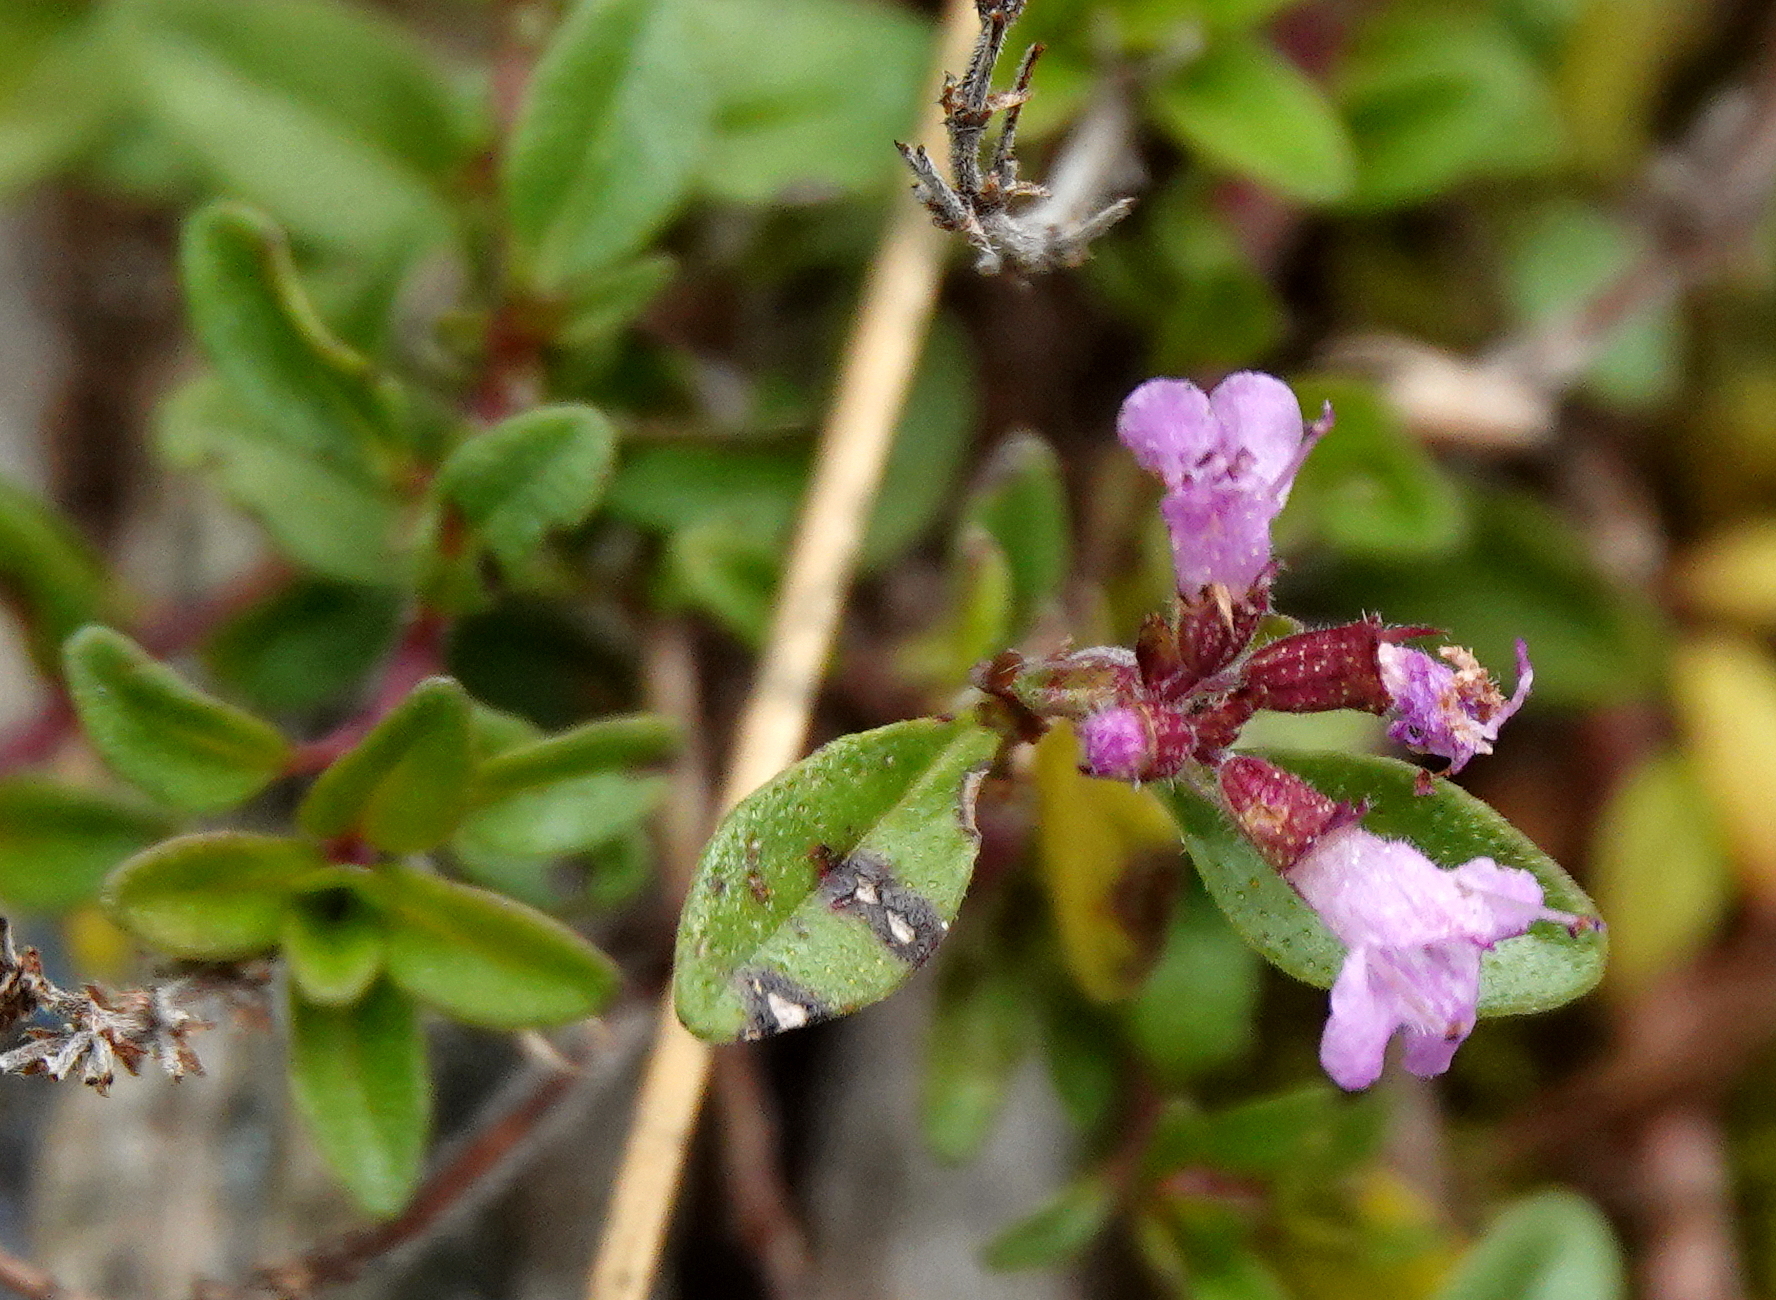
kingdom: Plantae
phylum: Tracheophyta
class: Magnoliopsida
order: Lamiales
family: Lamiaceae
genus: Thymus
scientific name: Thymus pulegioides
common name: Large thyme
